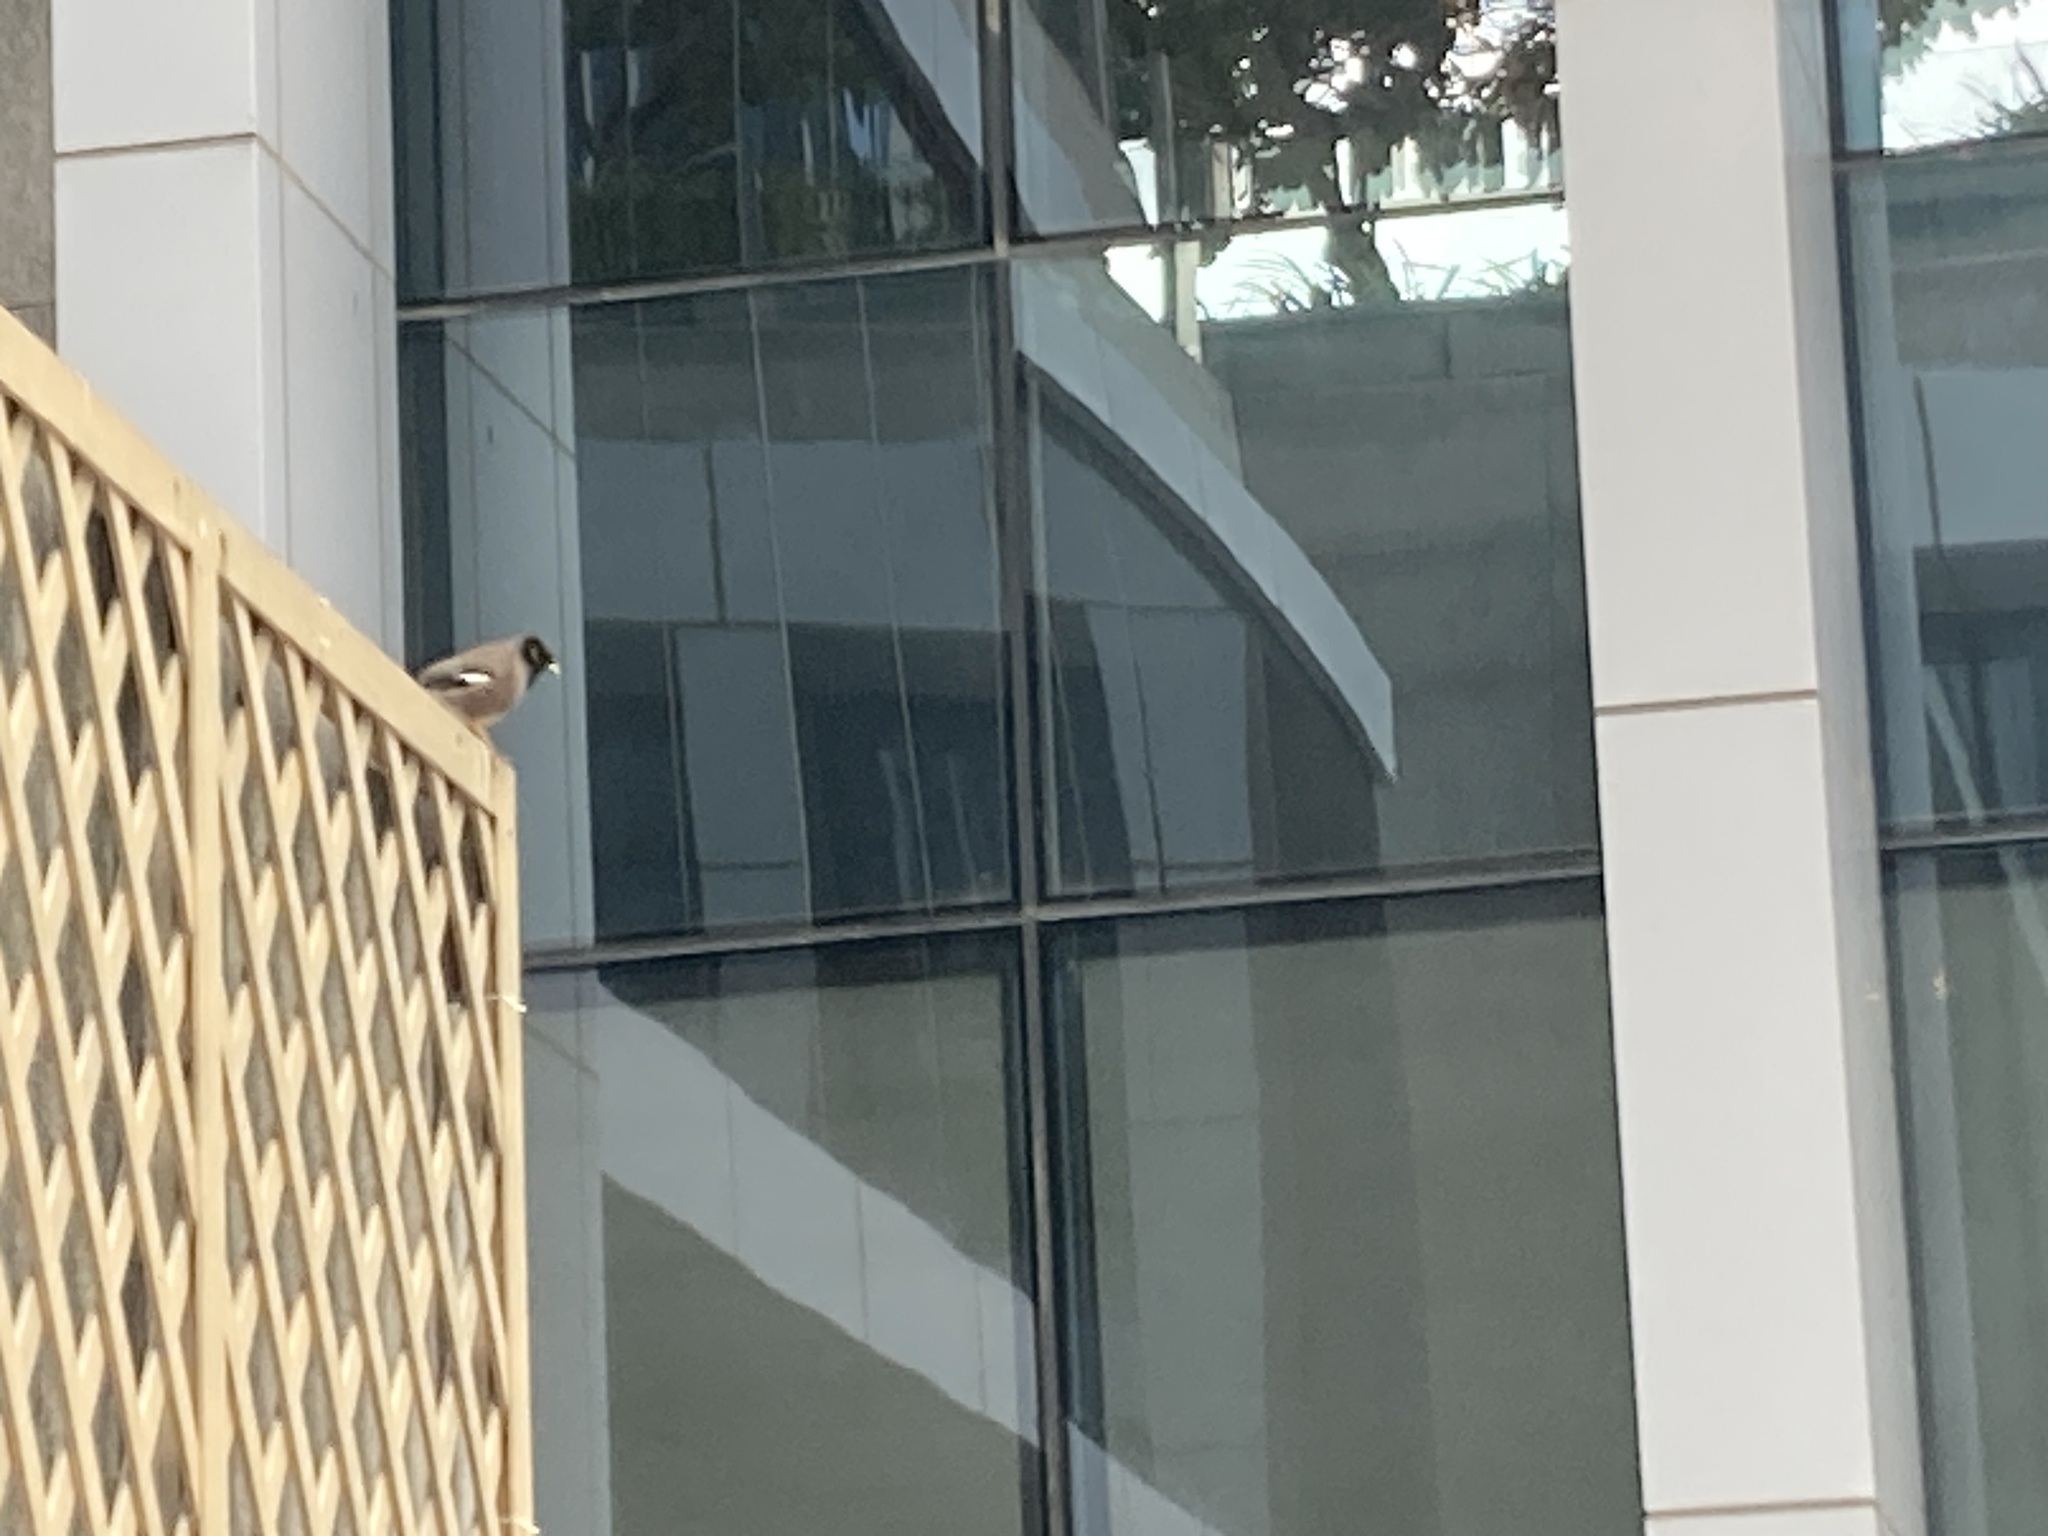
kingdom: Animalia
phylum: Chordata
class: Aves
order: Passeriformes
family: Sturnidae
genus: Acridotheres
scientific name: Acridotheres tristis
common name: Common myna
